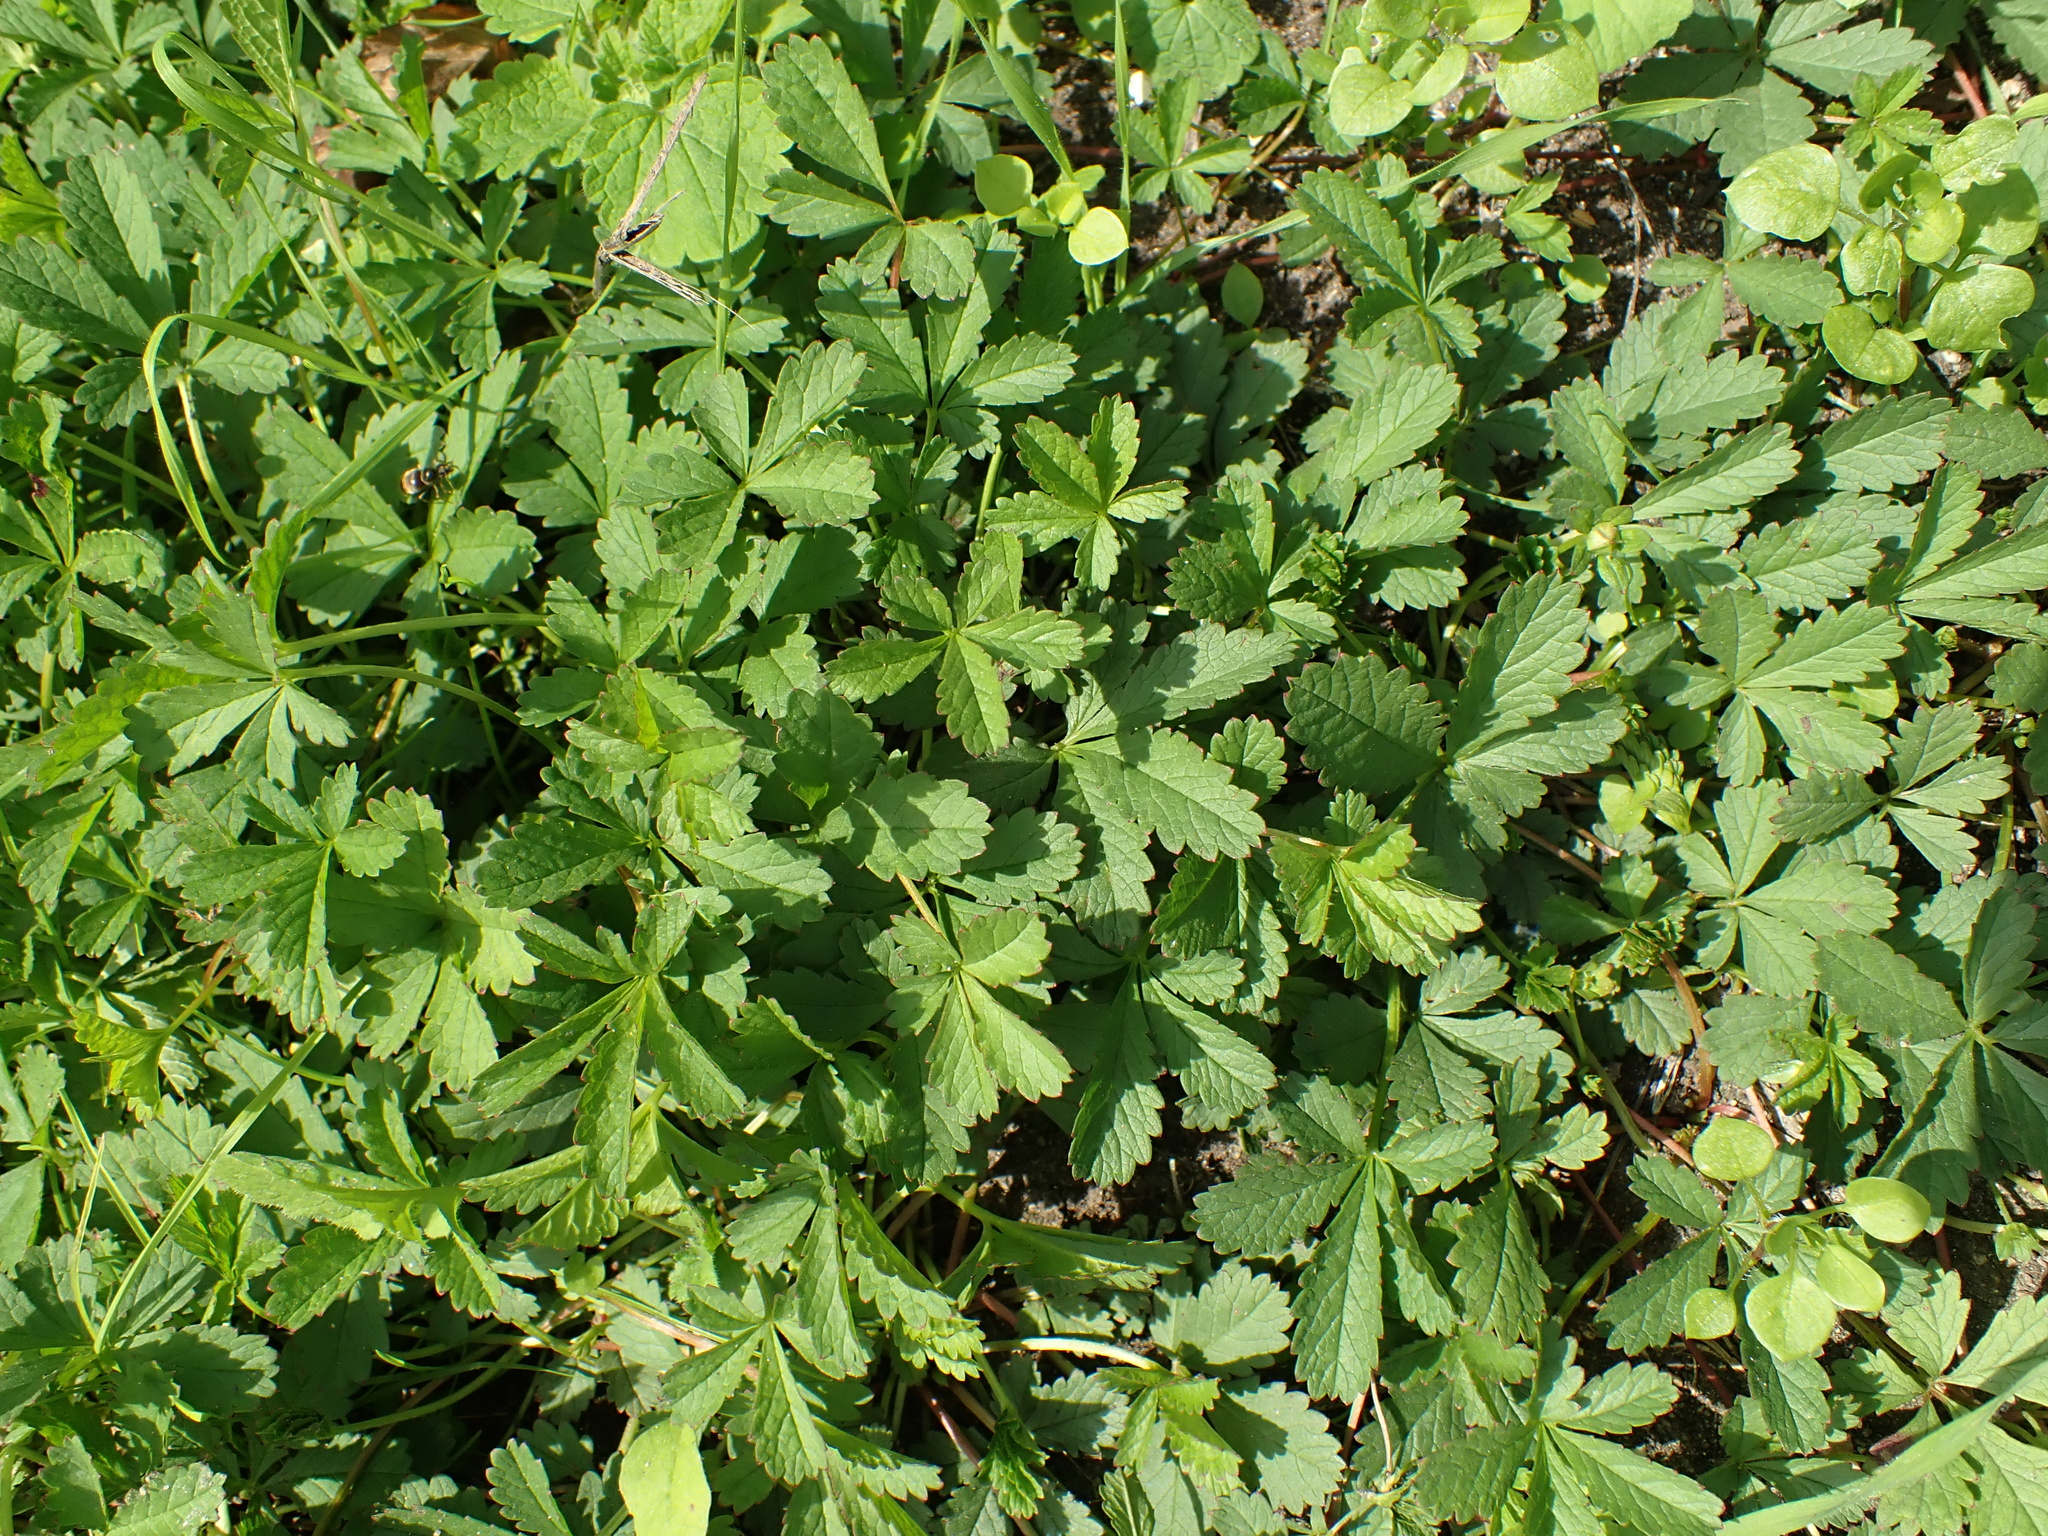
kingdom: Plantae
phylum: Tracheophyta
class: Magnoliopsida
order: Rosales
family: Rosaceae
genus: Potentilla
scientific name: Potentilla reptans
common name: Creeping cinquefoil
